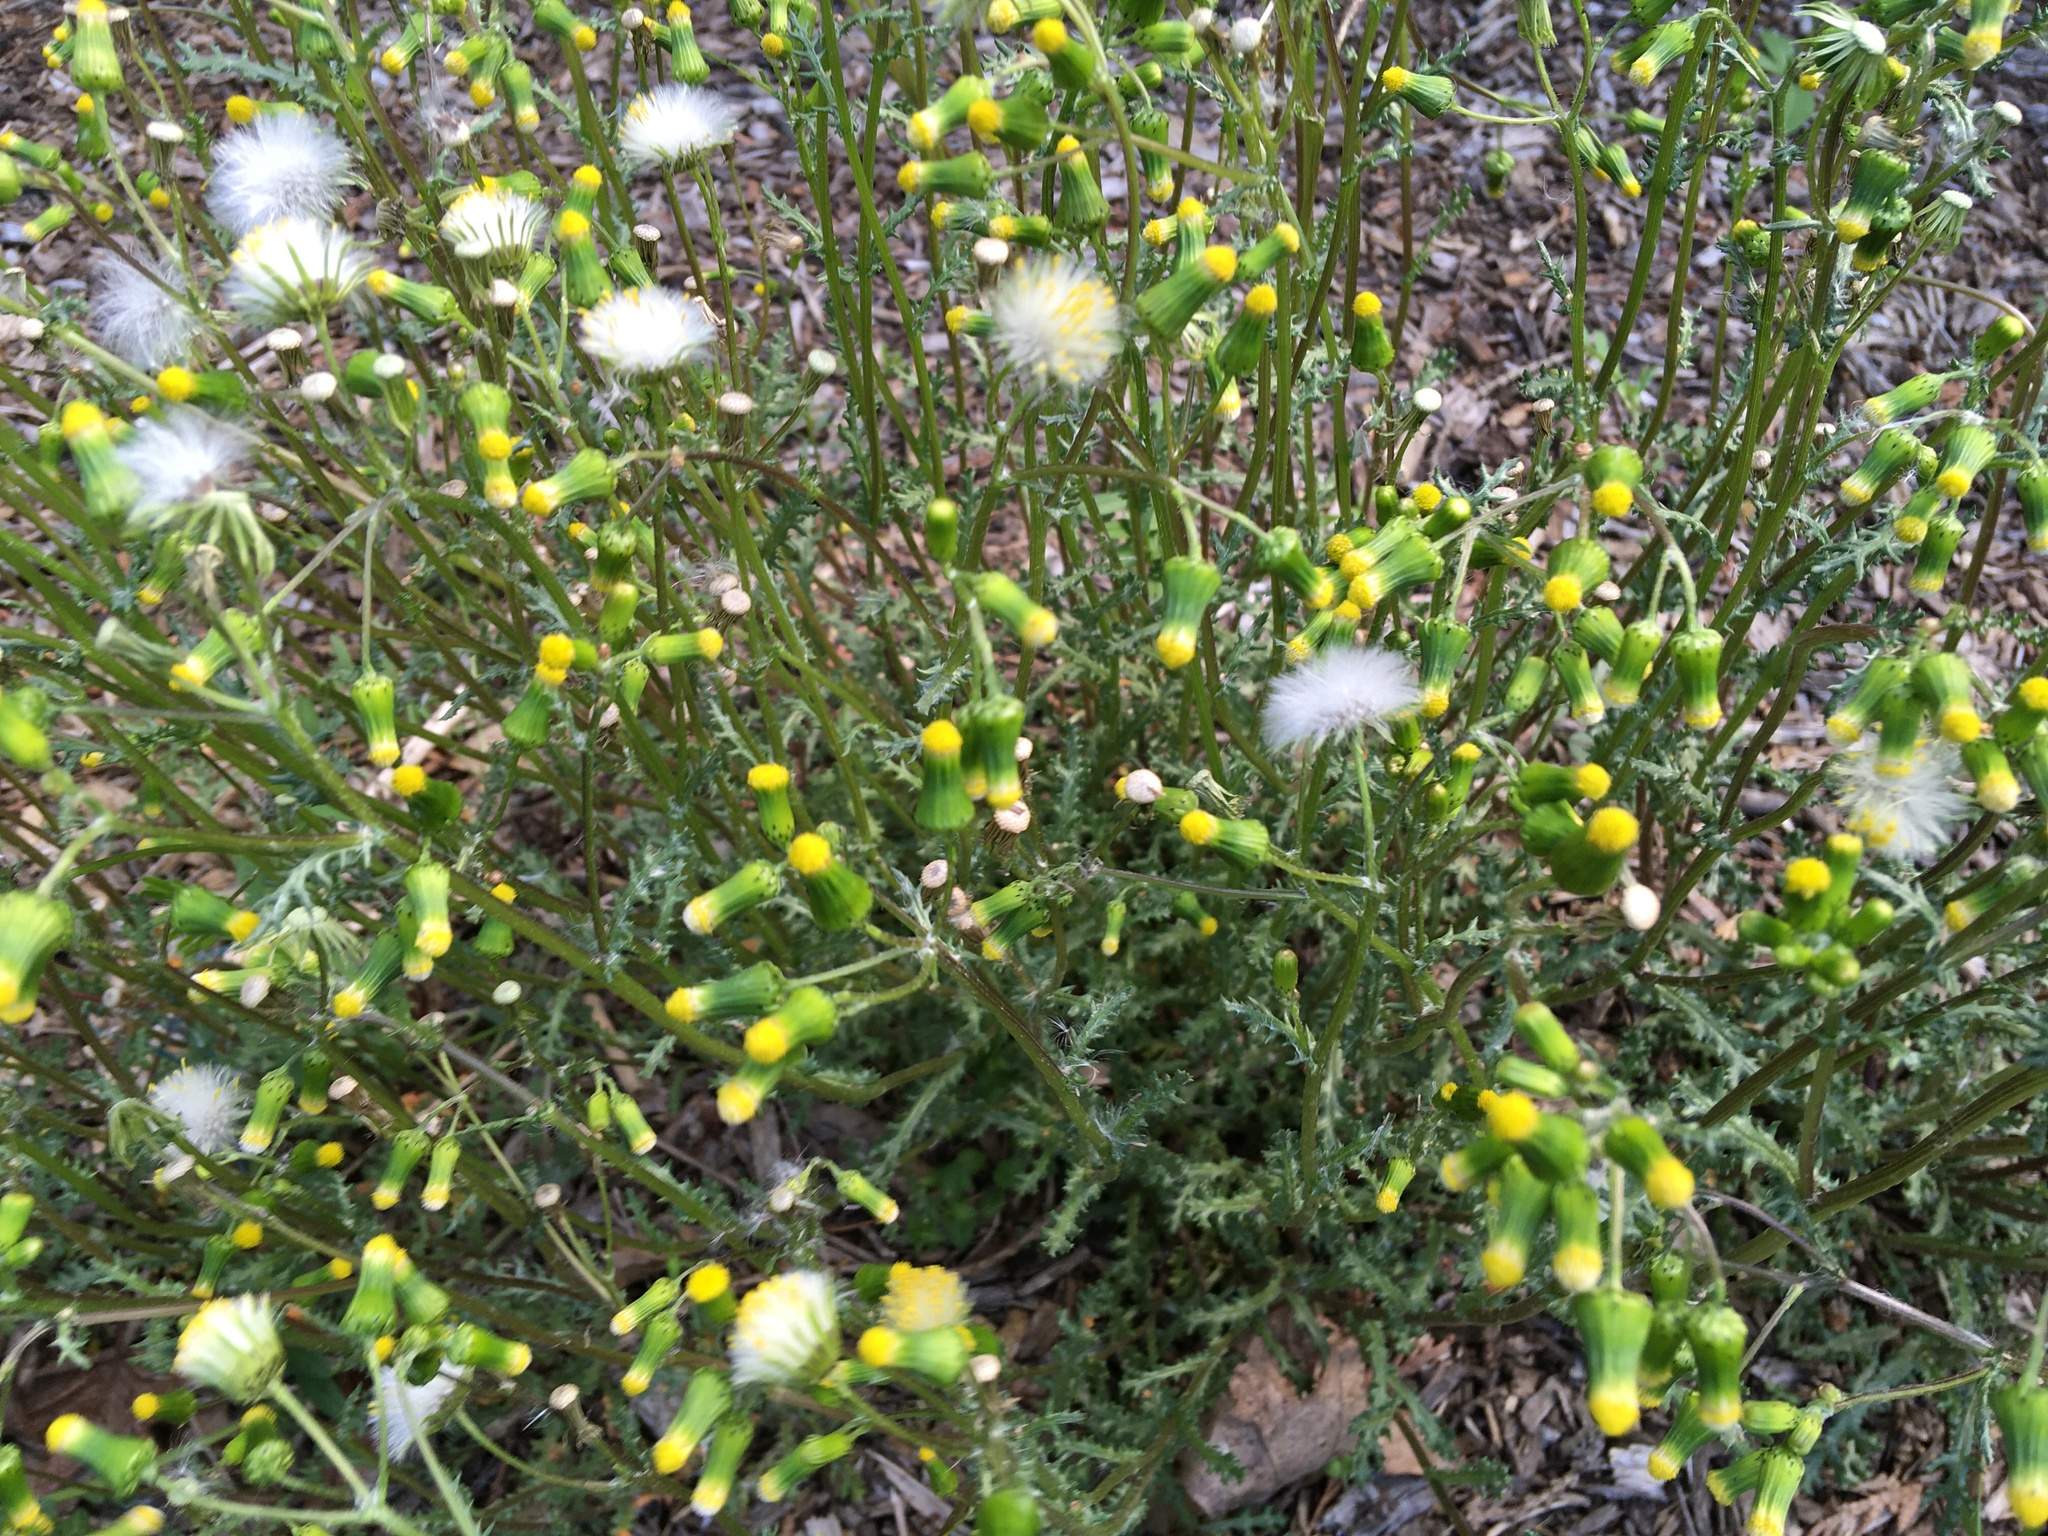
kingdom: Plantae
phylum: Tracheophyta
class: Magnoliopsida
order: Asterales
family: Asteraceae
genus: Senecio
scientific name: Senecio vulgaris
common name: Old-man-in-the-spring
